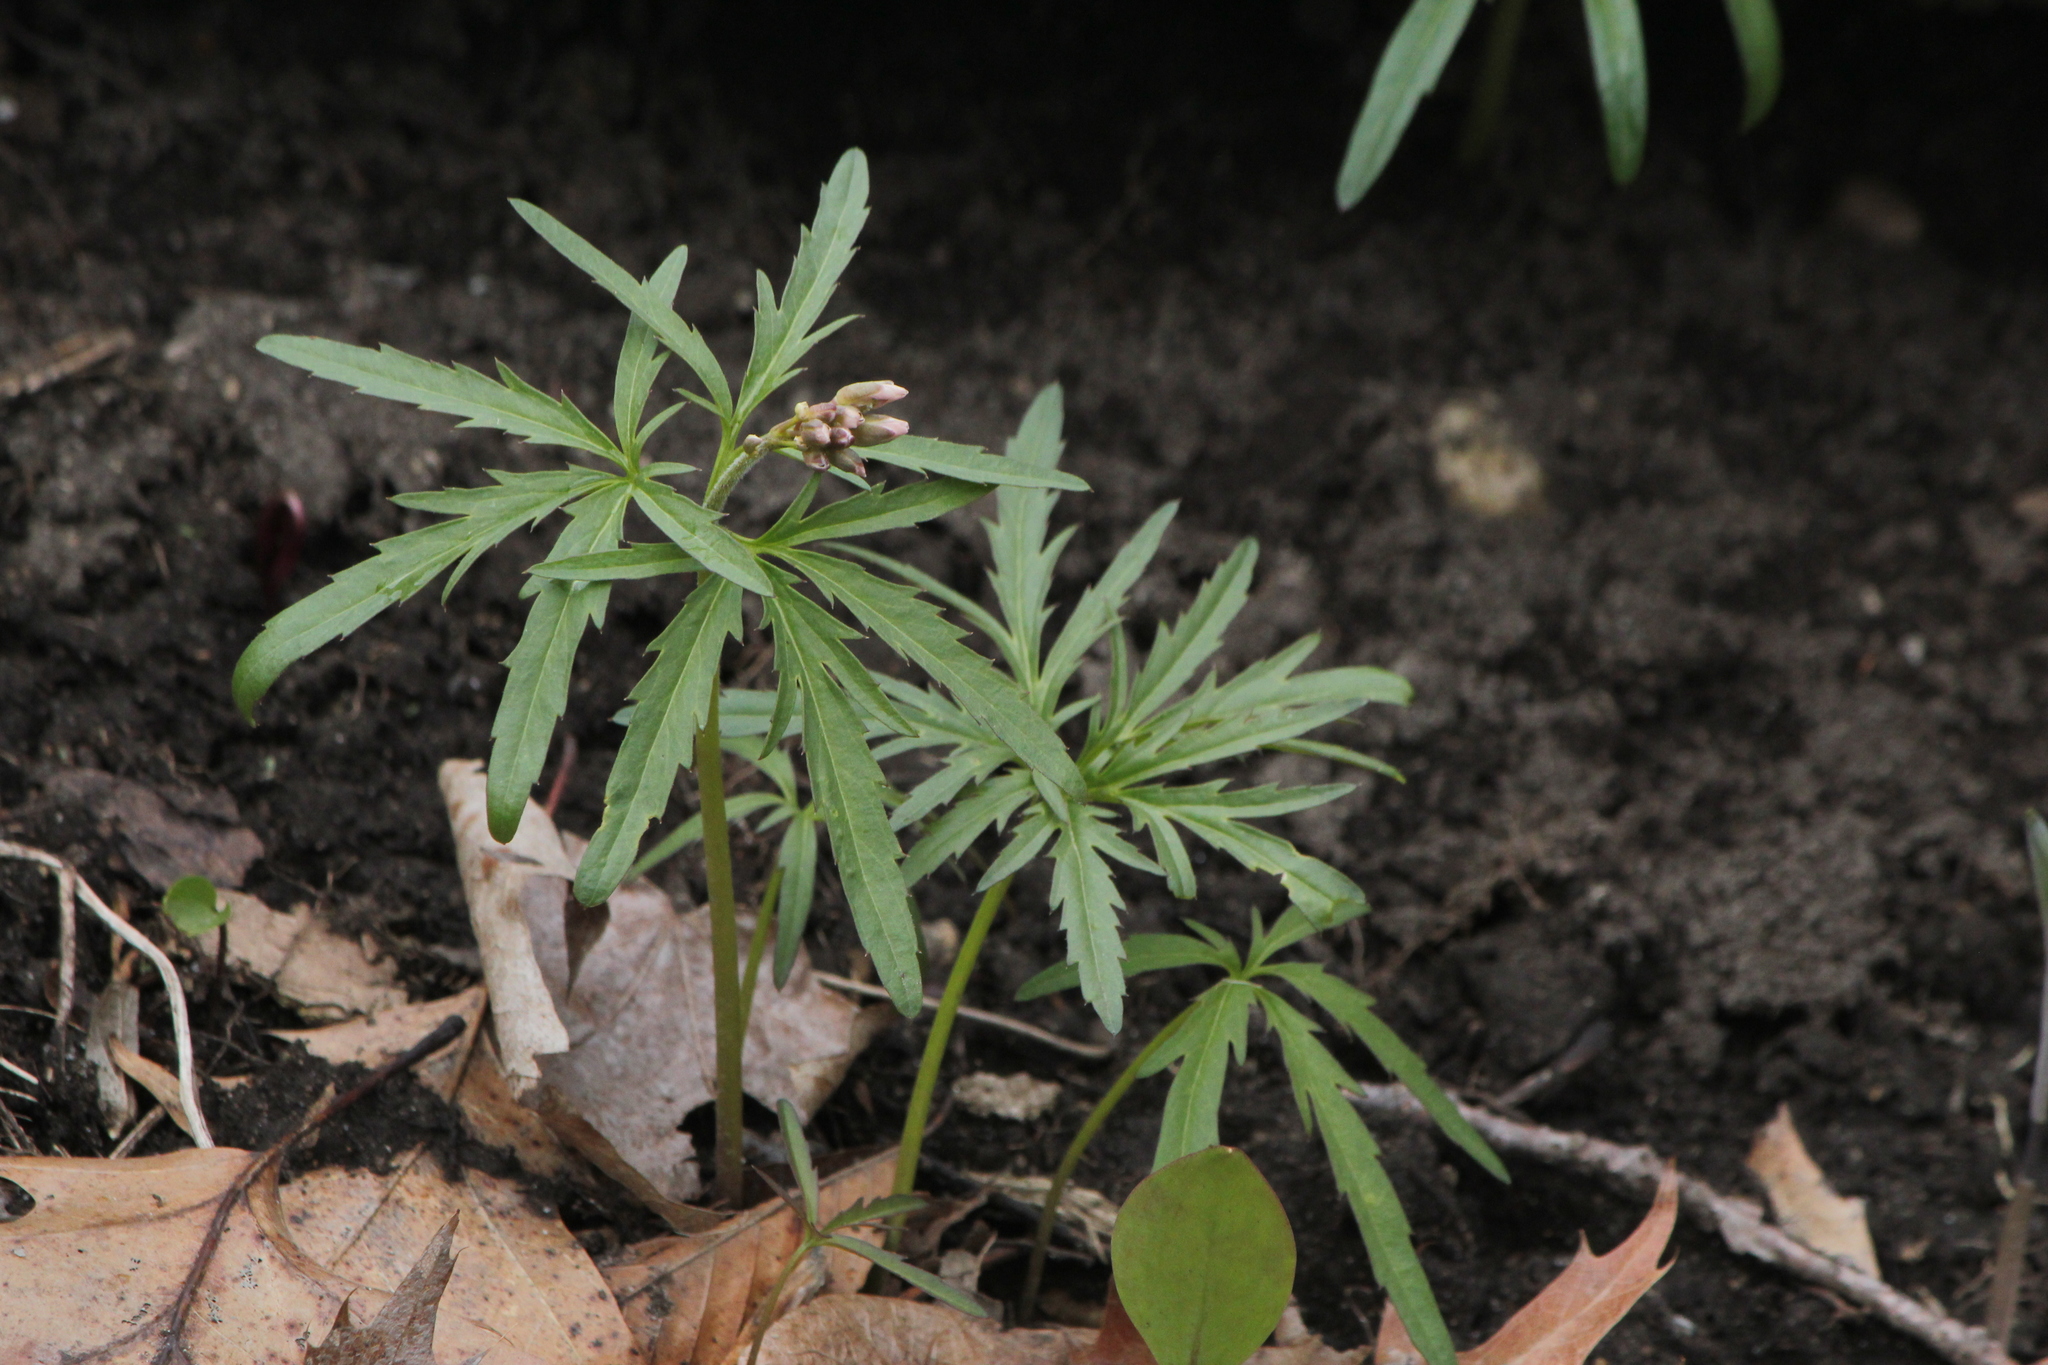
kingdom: Plantae
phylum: Tracheophyta
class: Magnoliopsida
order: Brassicales
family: Brassicaceae
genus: Cardamine
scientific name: Cardamine concatenata
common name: Cut-leaf toothcup
